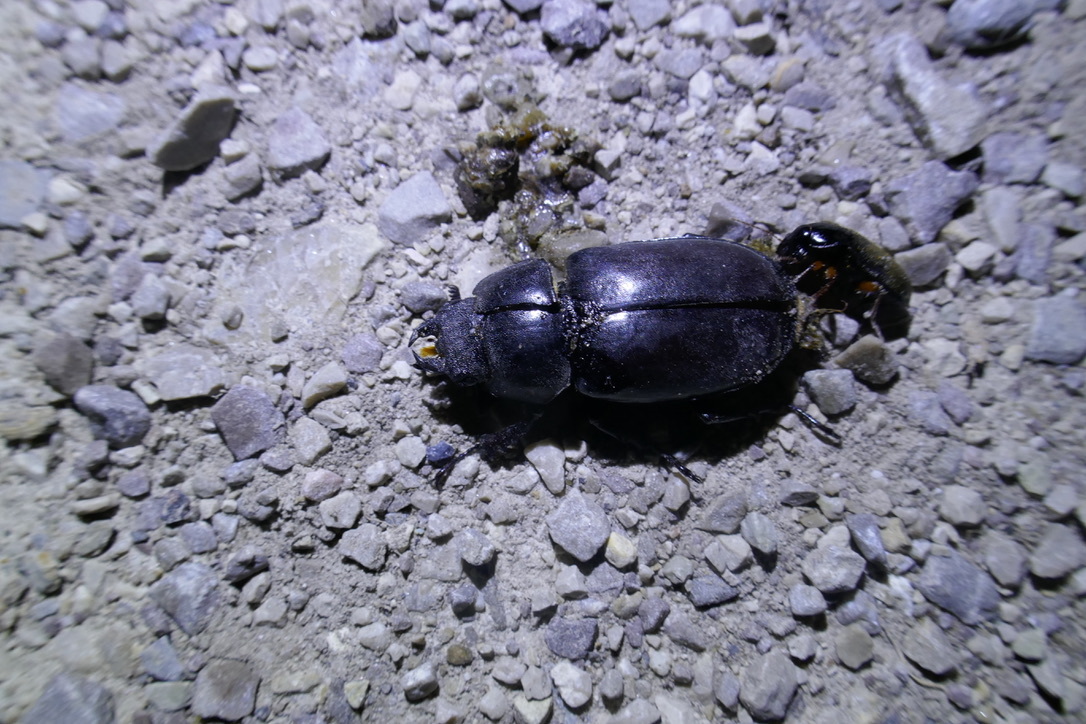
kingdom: Animalia
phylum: Arthropoda
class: Insecta
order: Coleoptera
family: Lucanidae
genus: Lucanus
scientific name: Lucanus cervus
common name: Stag beetle
